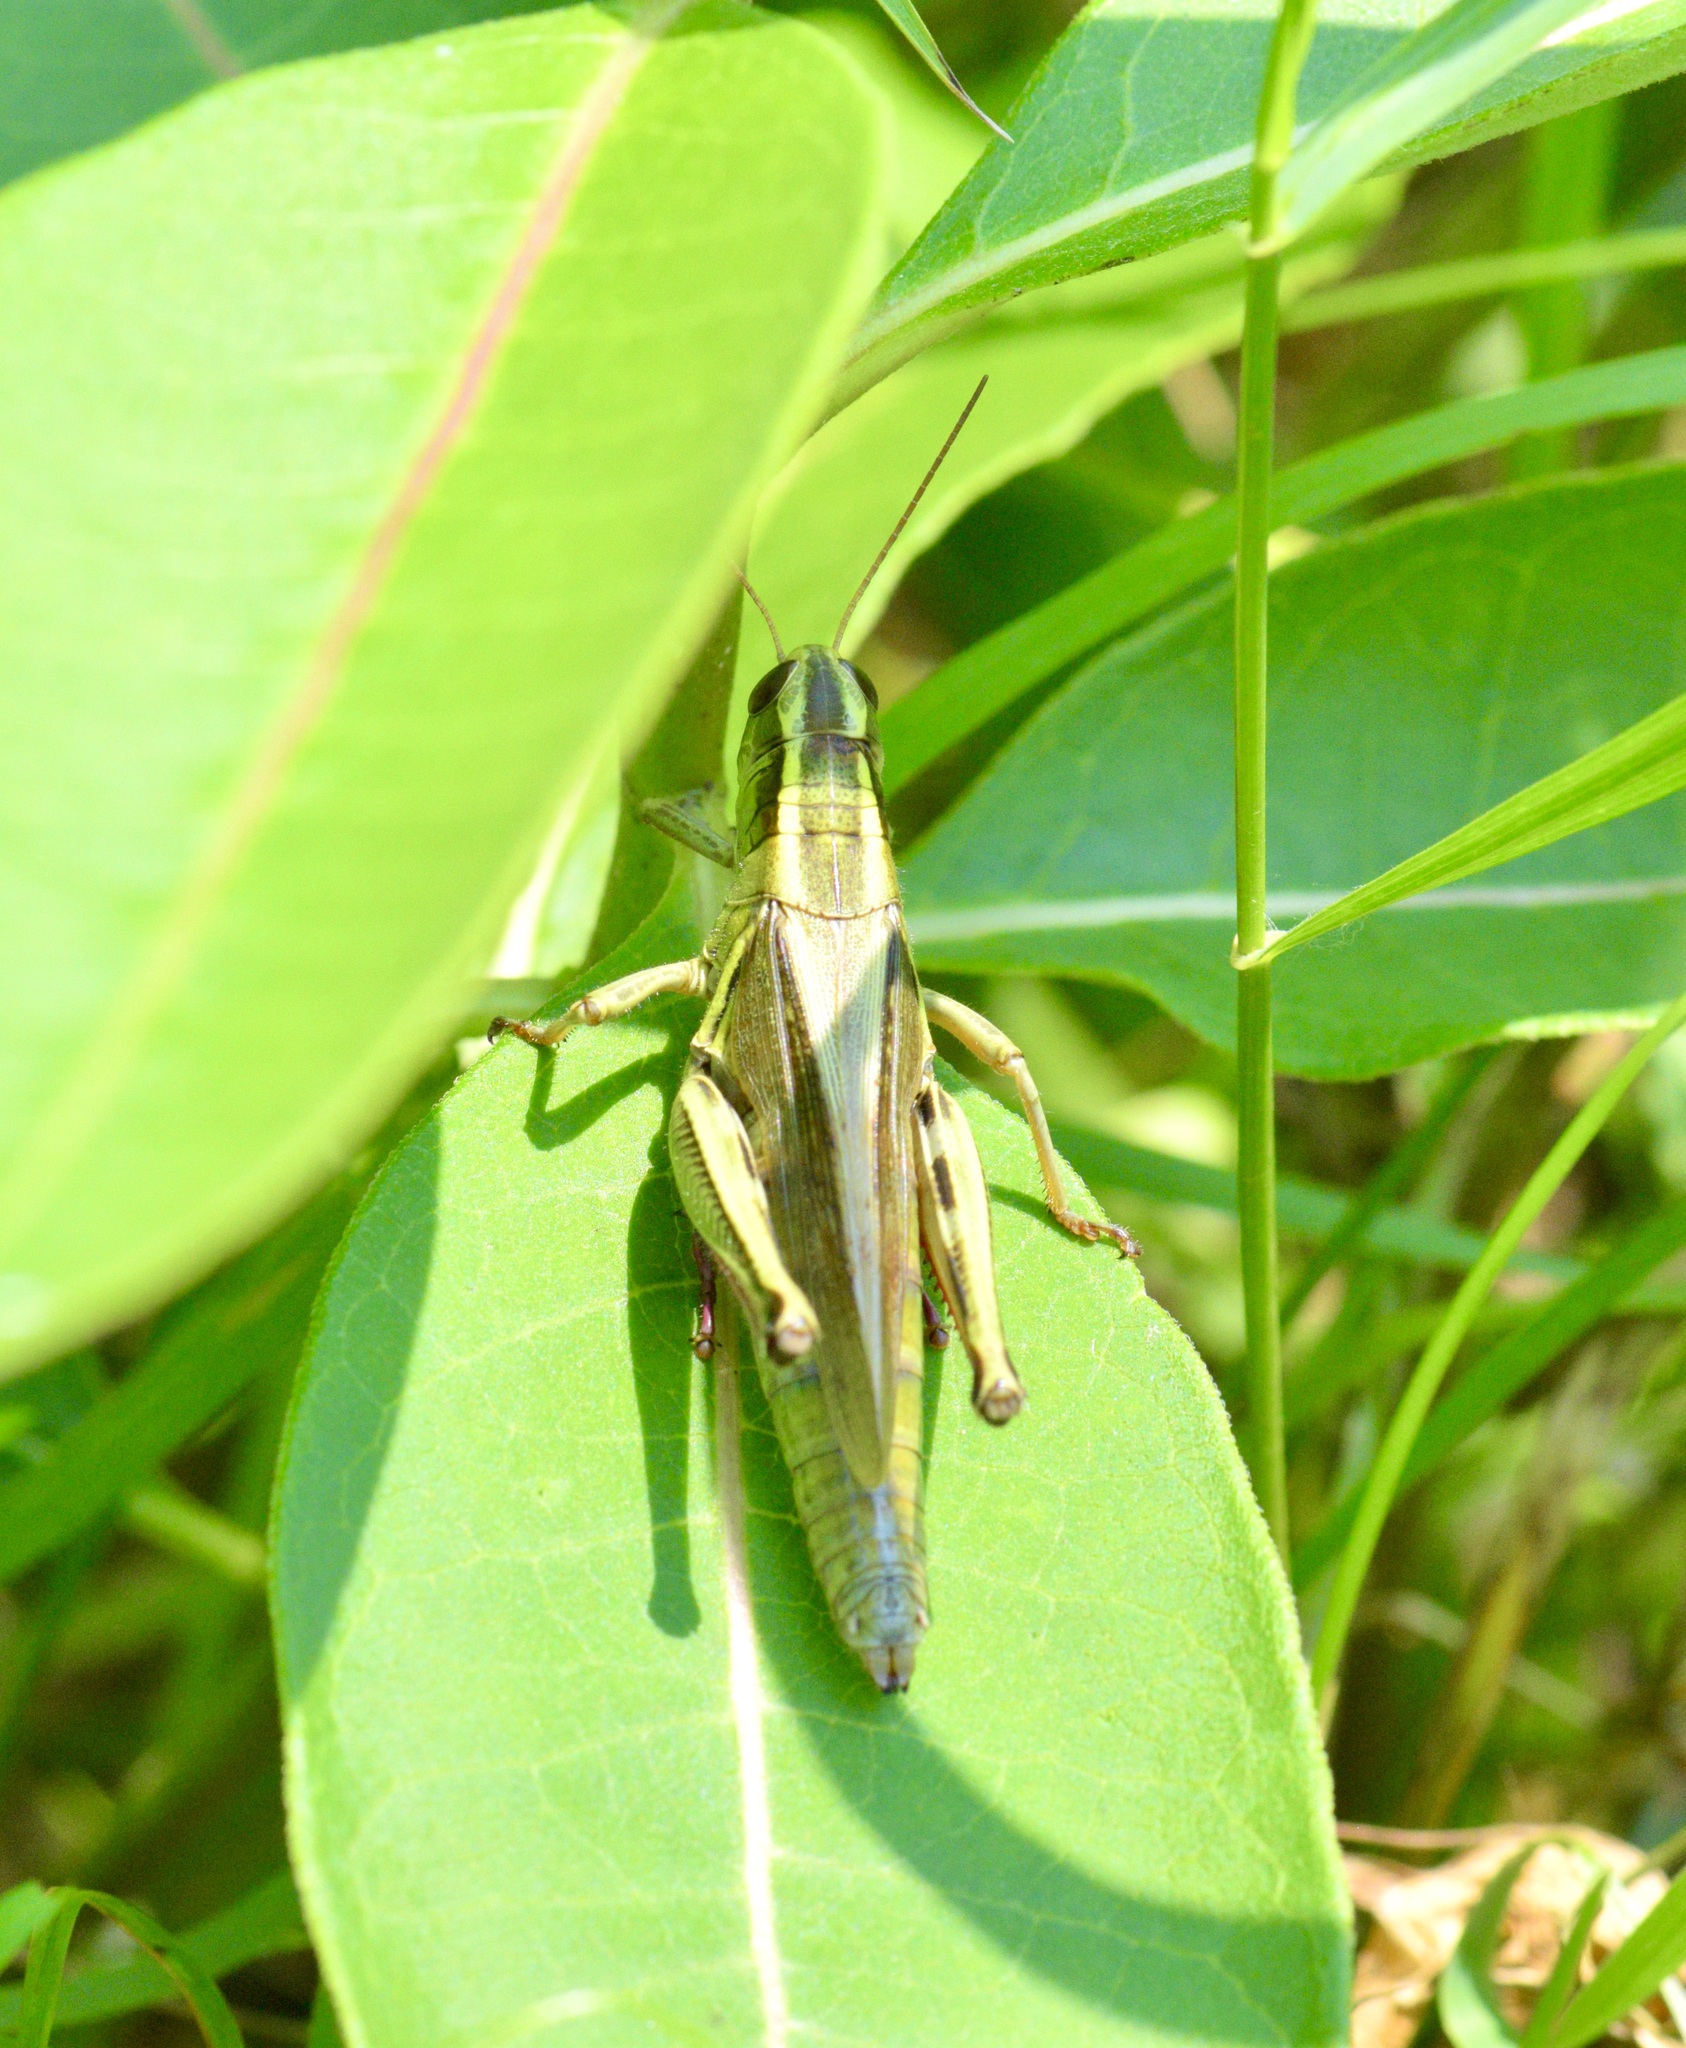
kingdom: Animalia
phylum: Arthropoda
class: Insecta
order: Orthoptera
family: Acrididae
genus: Melanoplus
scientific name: Melanoplus bivittatus
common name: Two-striped grasshopper
